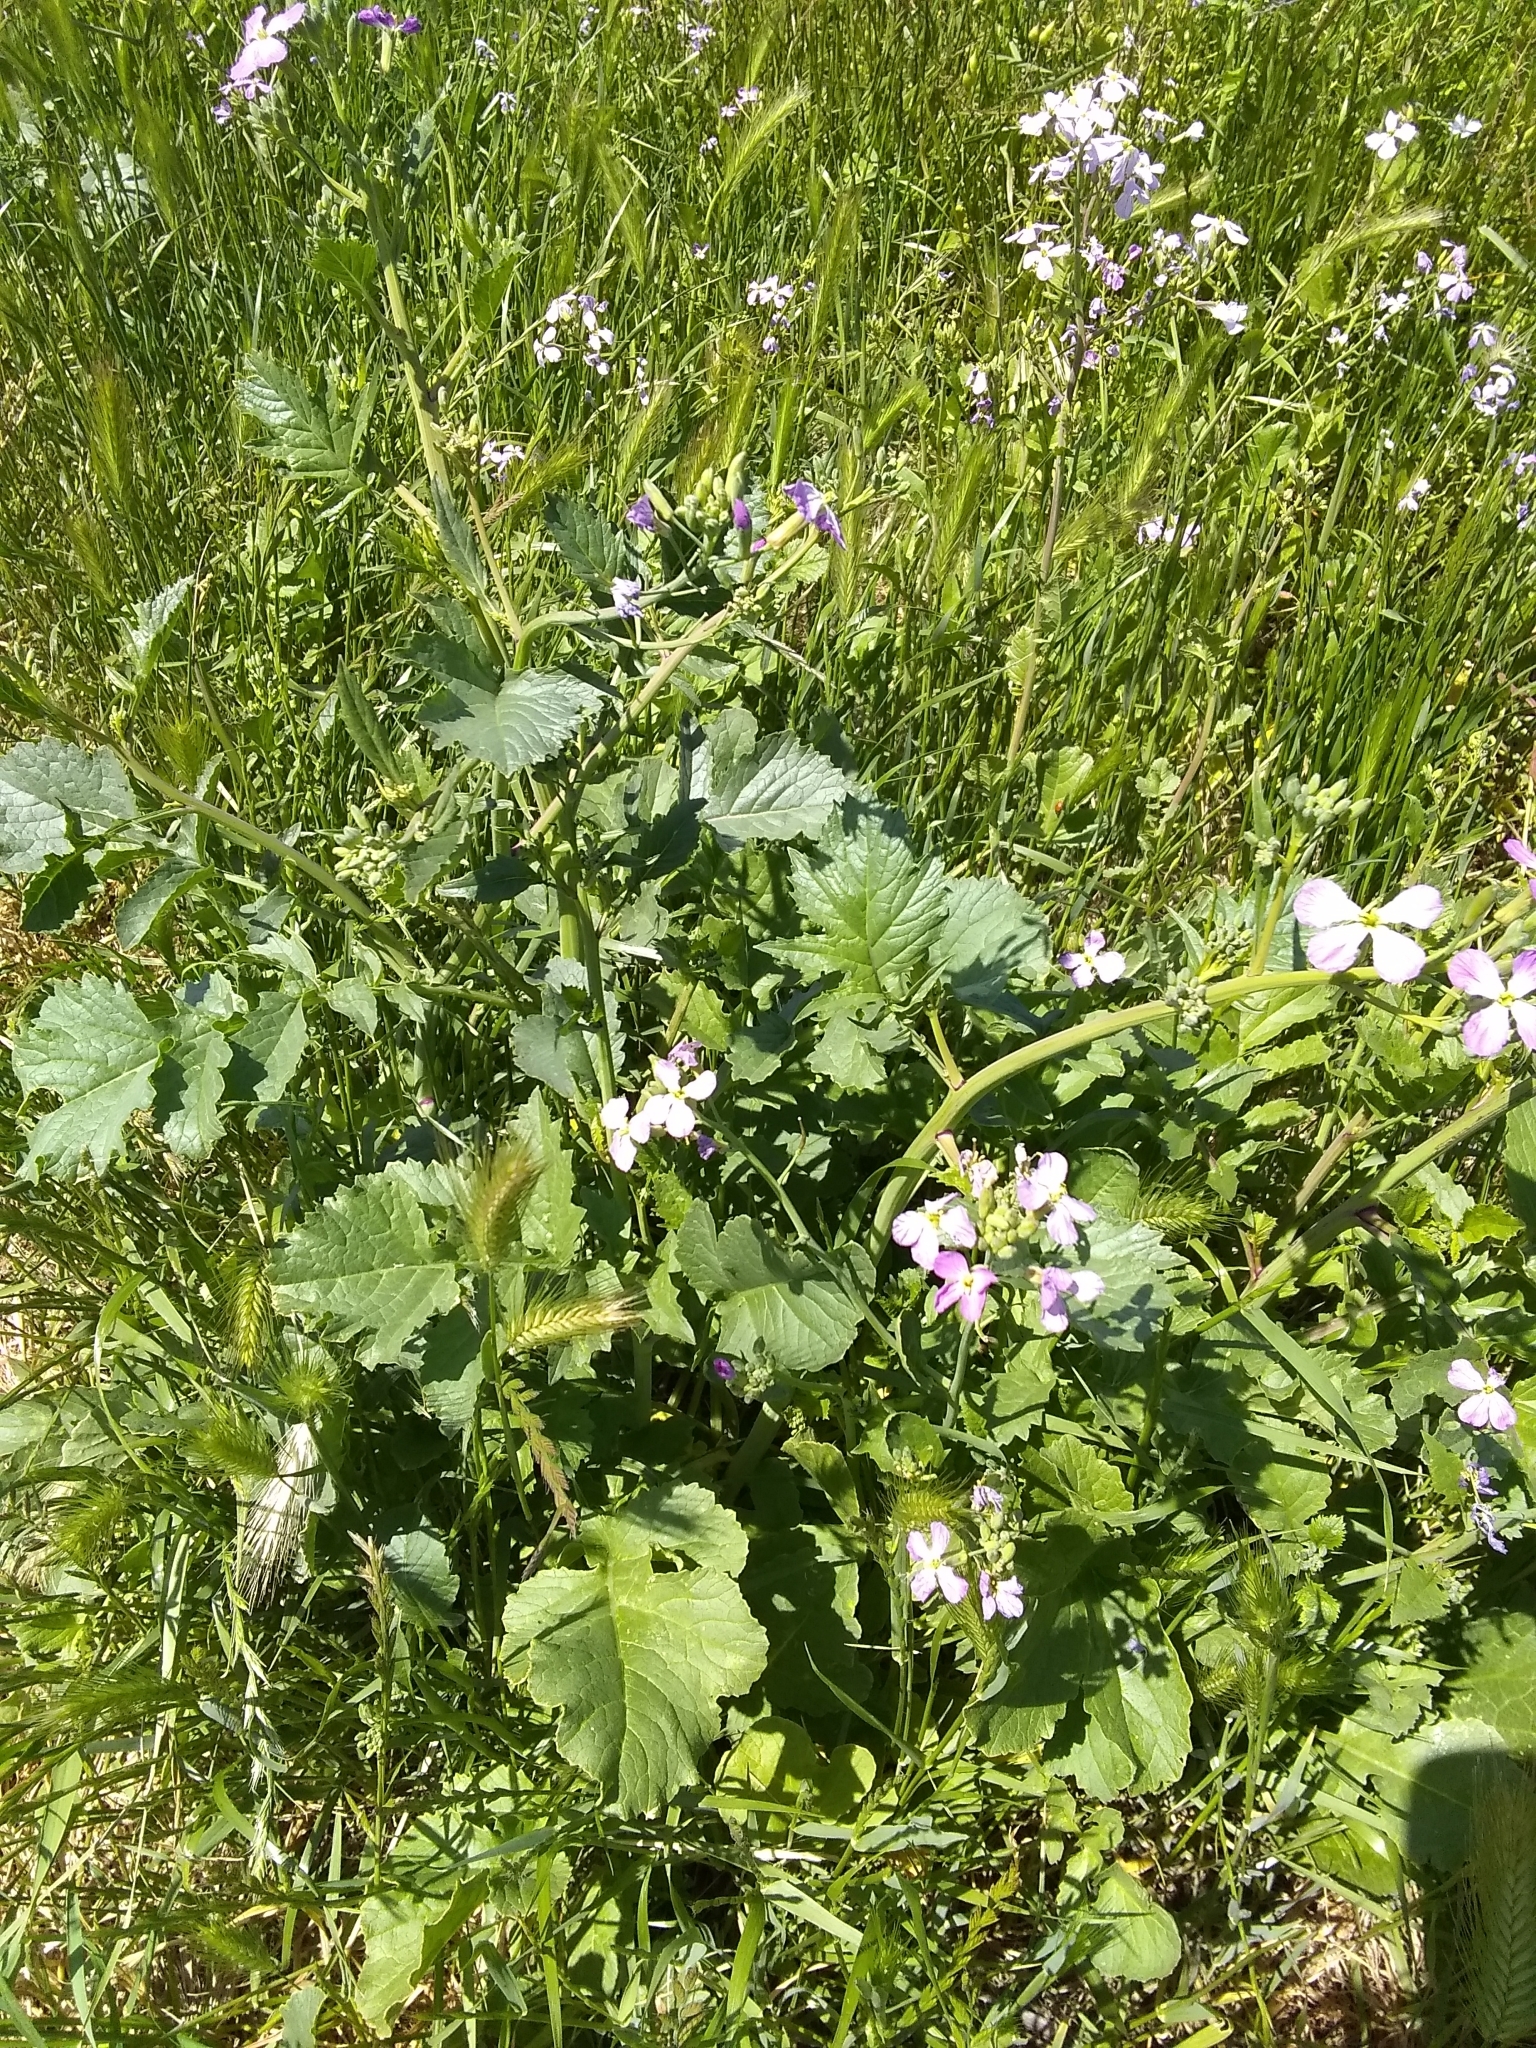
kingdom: Plantae
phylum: Tracheophyta
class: Magnoliopsida
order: Brassicales
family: Brassicaceae
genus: Raphanus
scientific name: Raphanus sativus
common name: Cultivated radish
